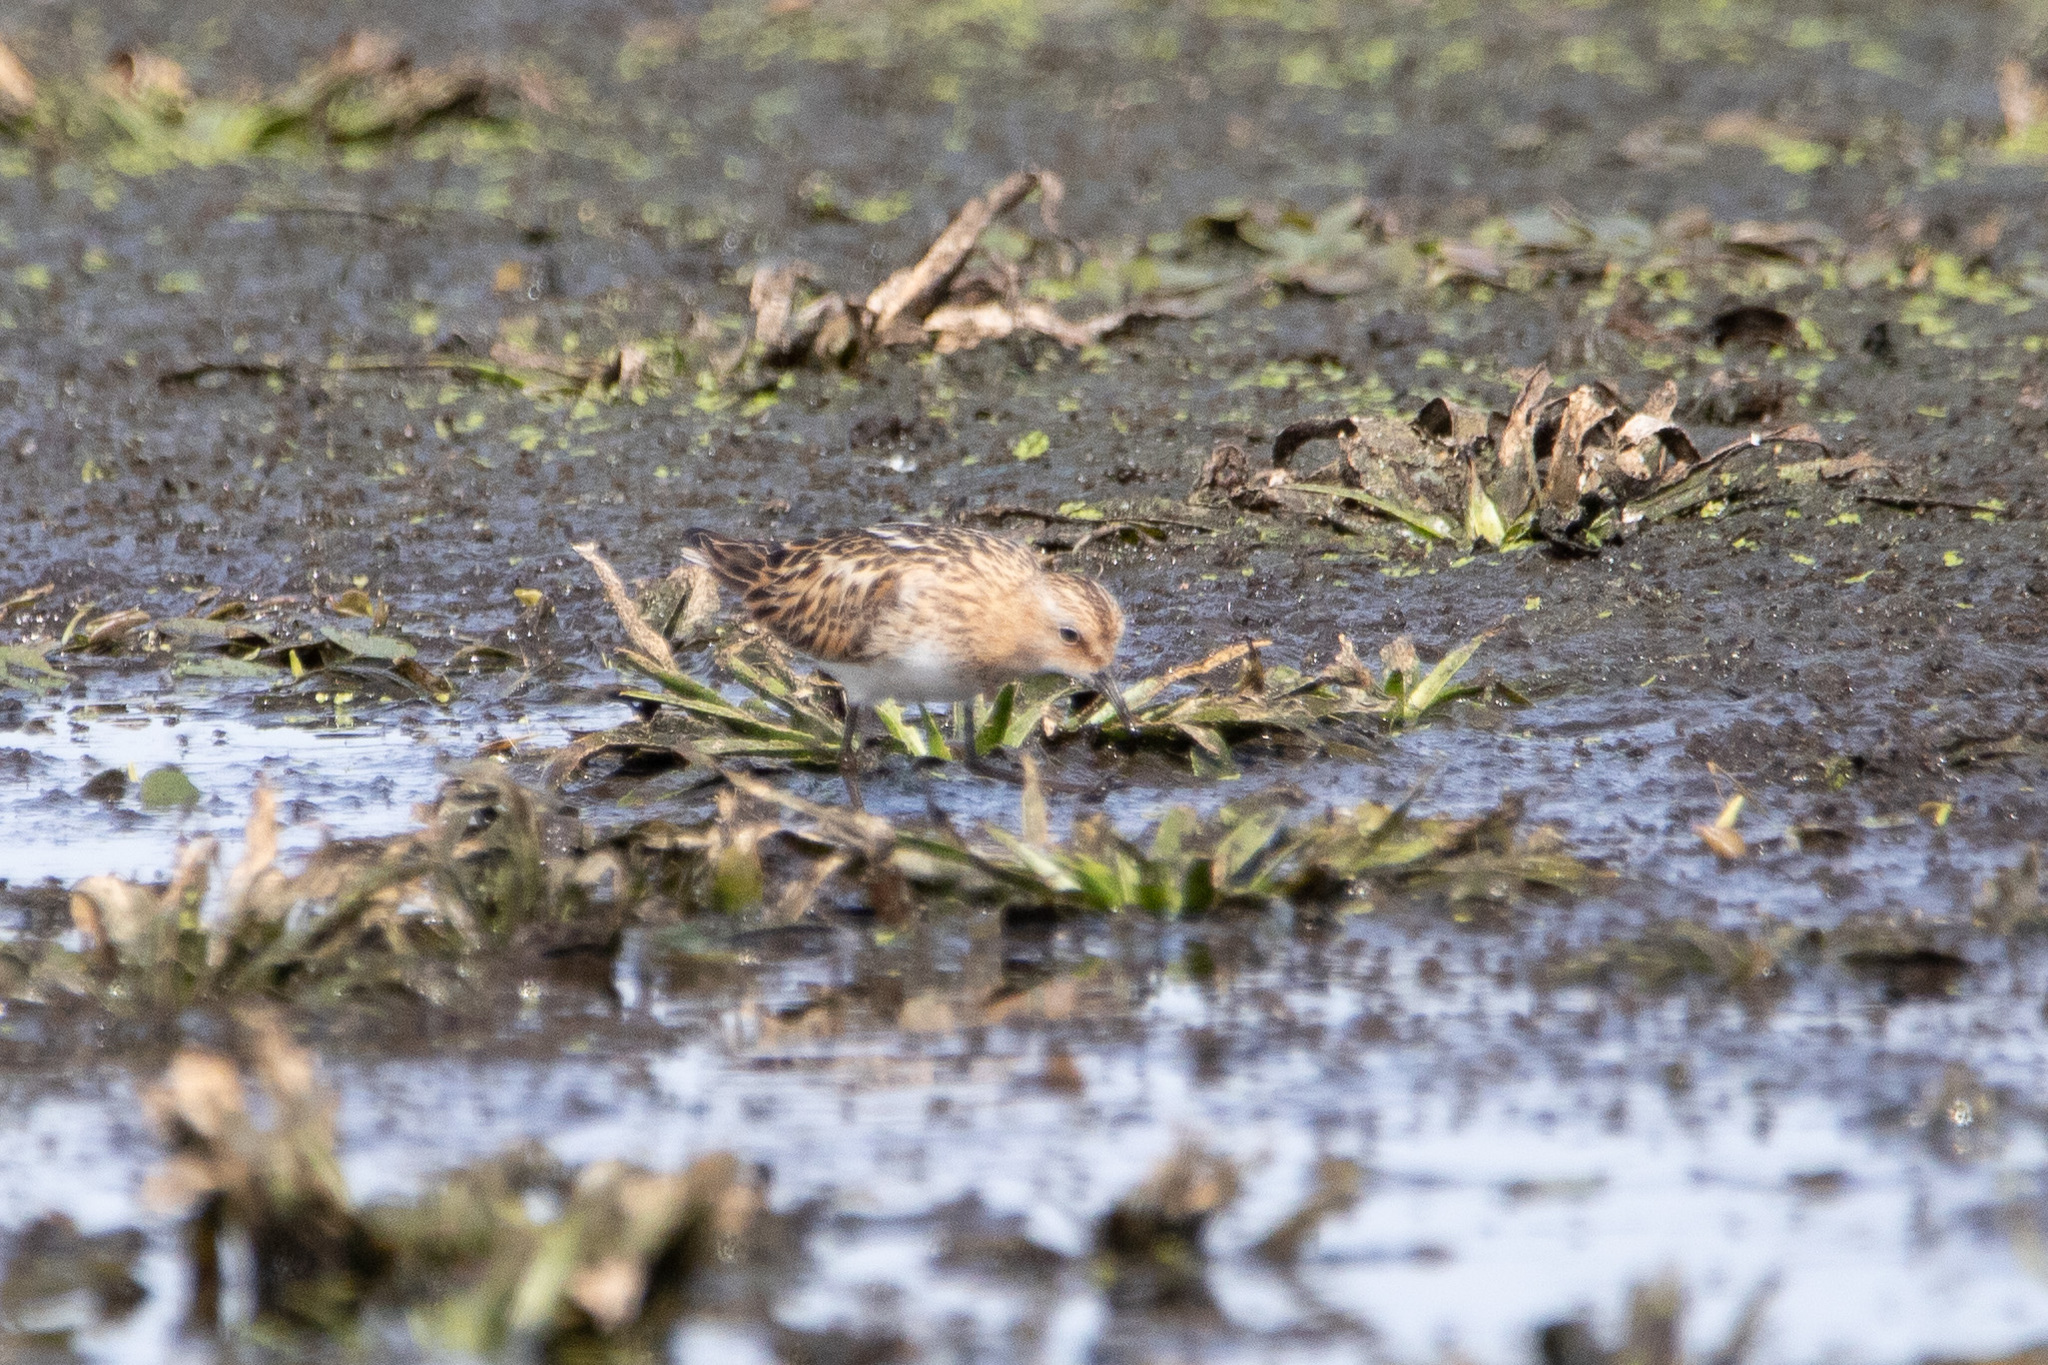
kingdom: Animalia
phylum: Chordata
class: Aves
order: Charadriiformes
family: Scolopacidae
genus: Calidris
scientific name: Calidris minuta
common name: Little stint
